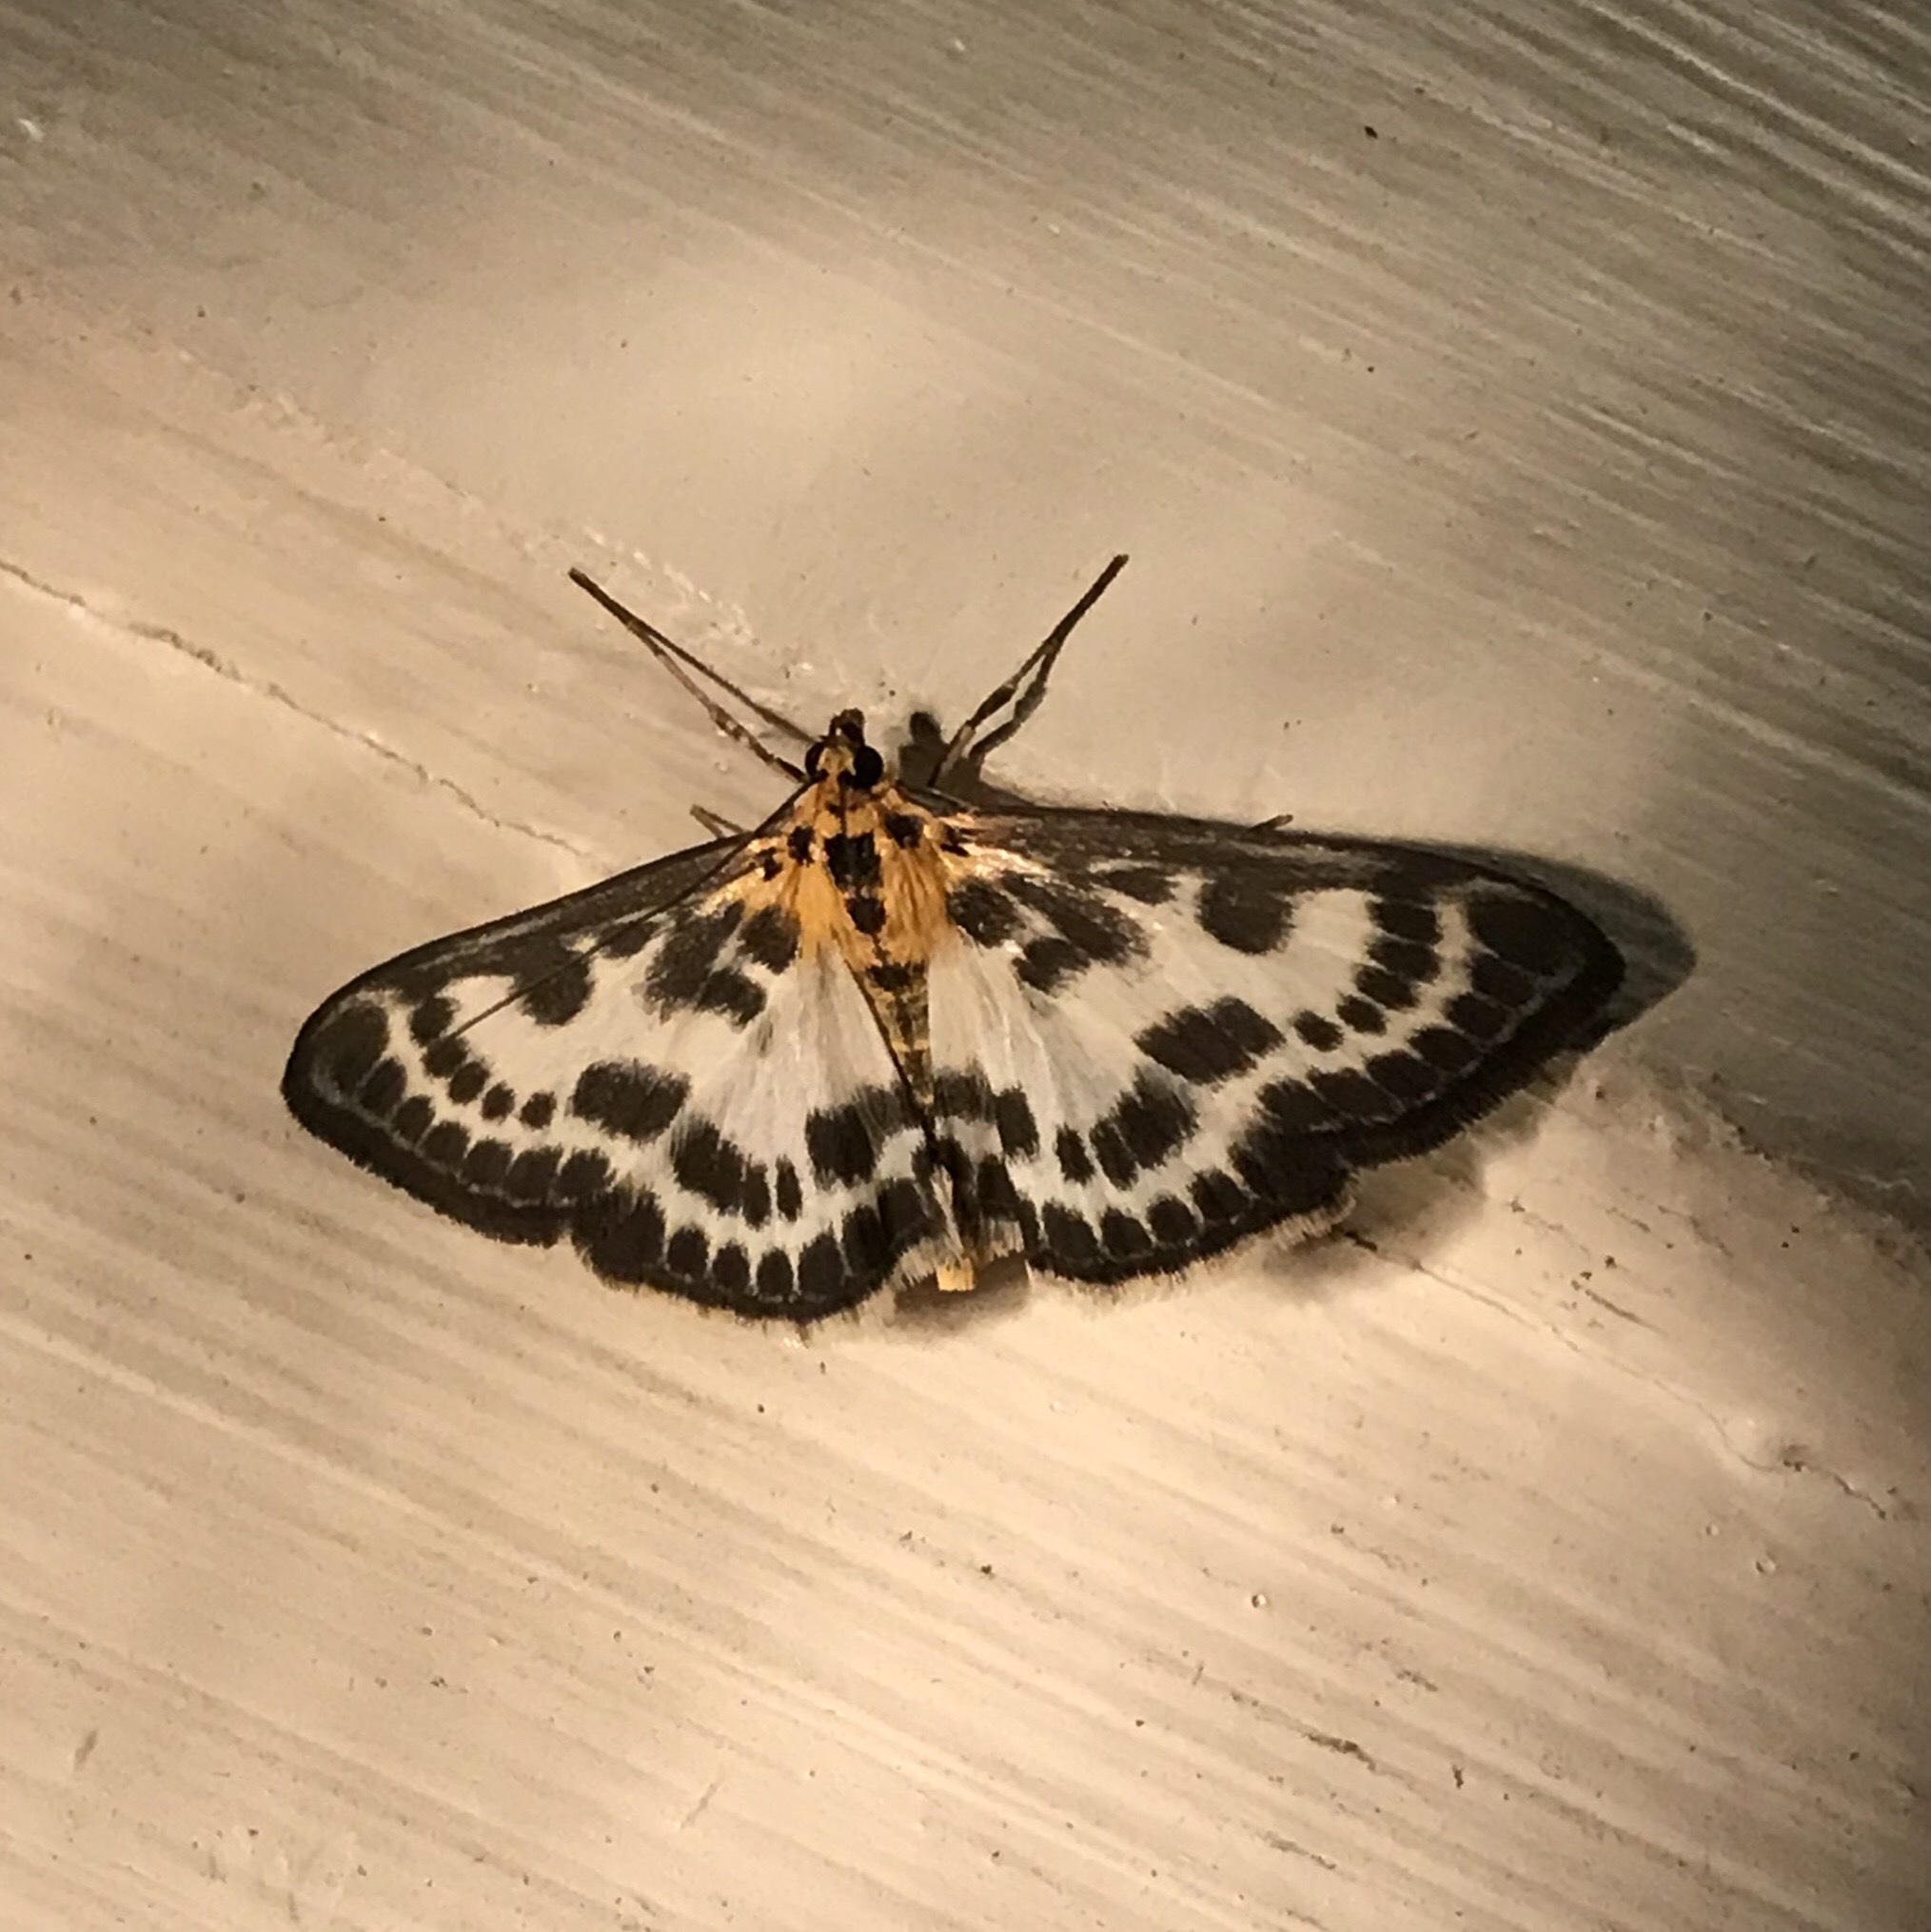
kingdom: Animalia
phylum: Arthropoda
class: Insecta
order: Lepidoptera
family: Crambidae
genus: Anania
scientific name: Anania hortulata
